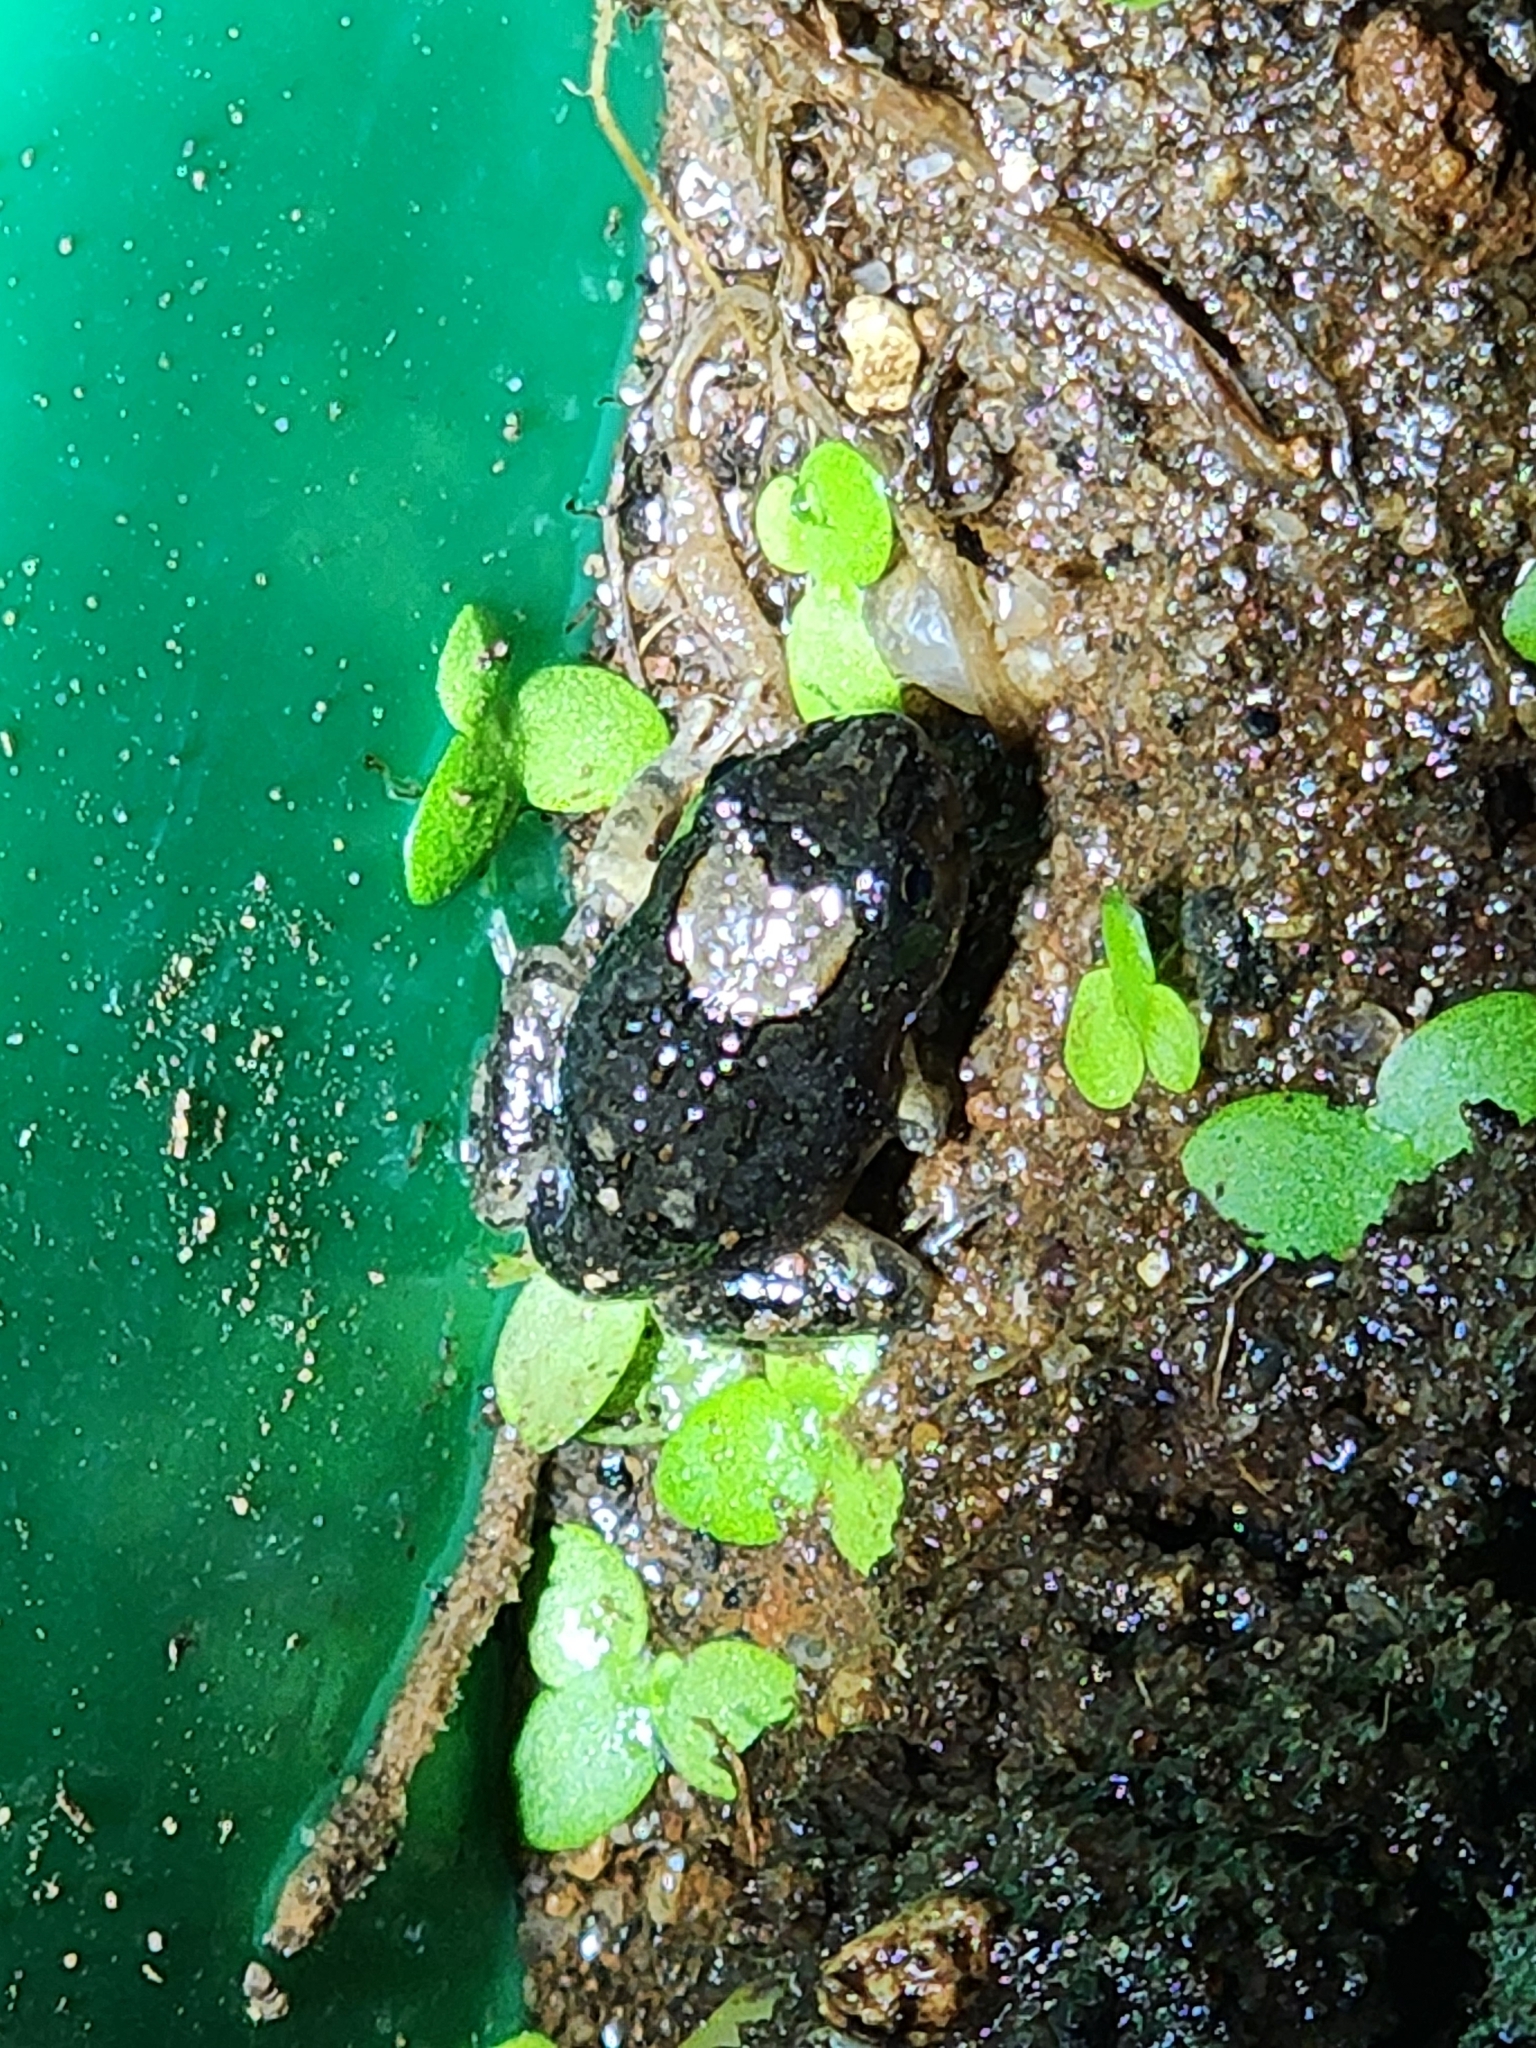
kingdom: Animalia
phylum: Chordata
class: Amphibia
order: Anura
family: Limnodynastidae
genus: Platyplectrum
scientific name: Platyplectrum ornatum
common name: Ornate burrowing frog
